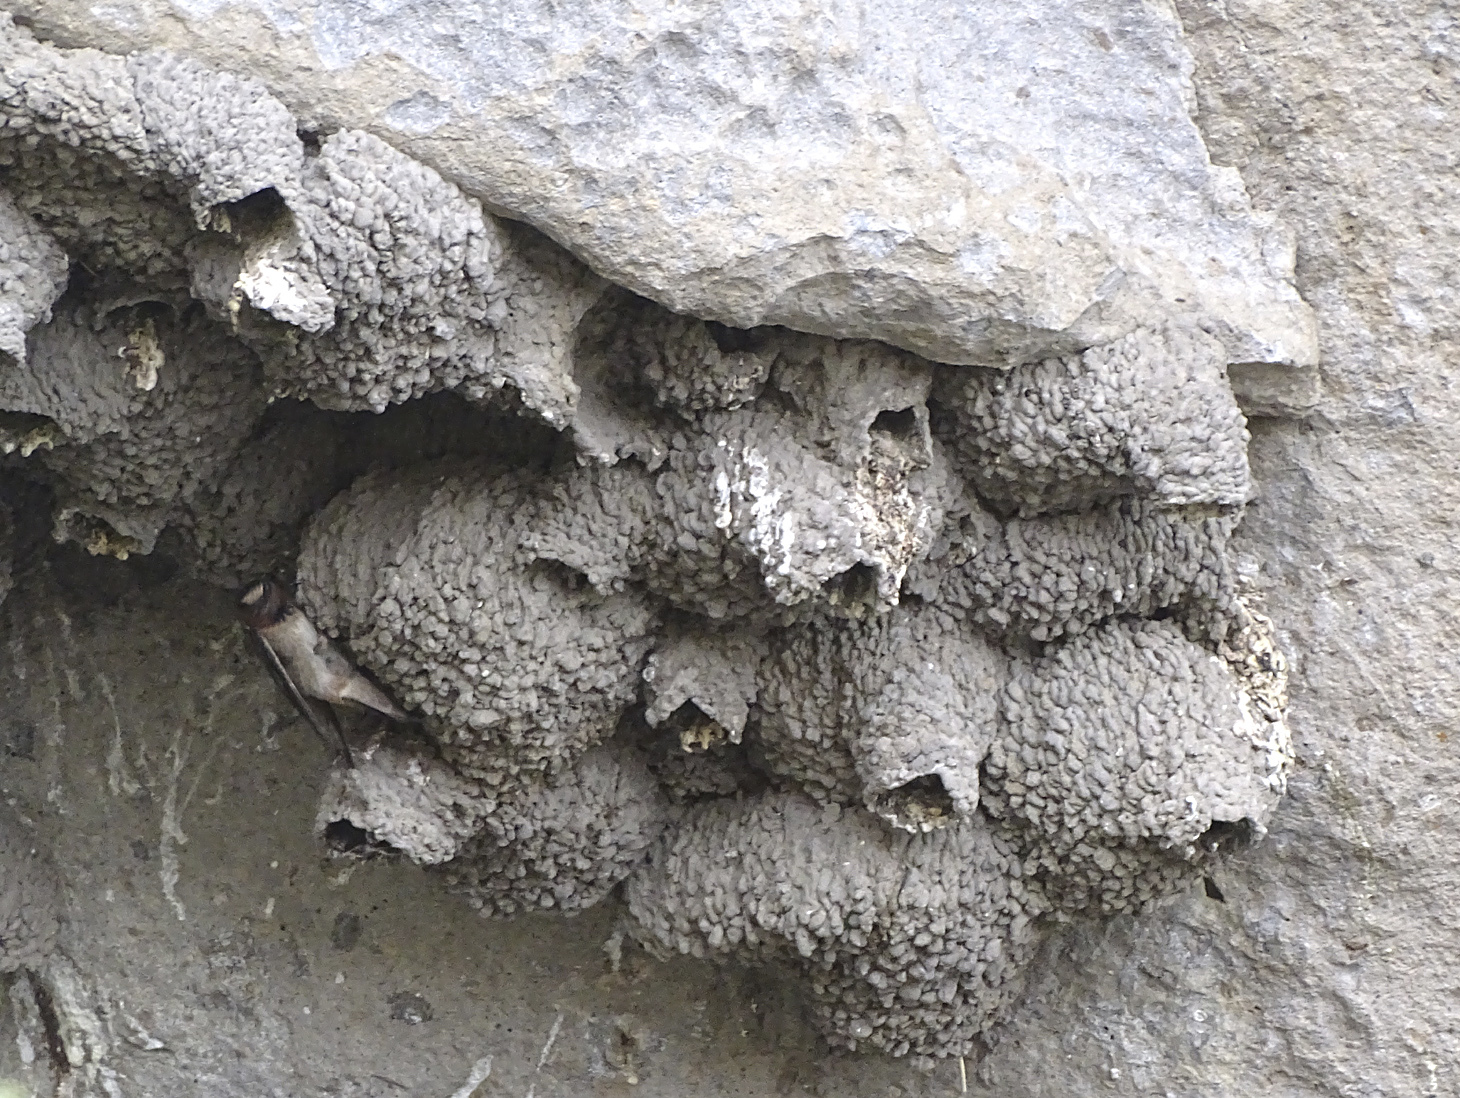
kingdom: Animalia
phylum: Chordata
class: Aves
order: Passeriformes
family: Hirundinidae
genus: Petrochelidon
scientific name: Petrochelidon pyrrhonota
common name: American cliff swallow
